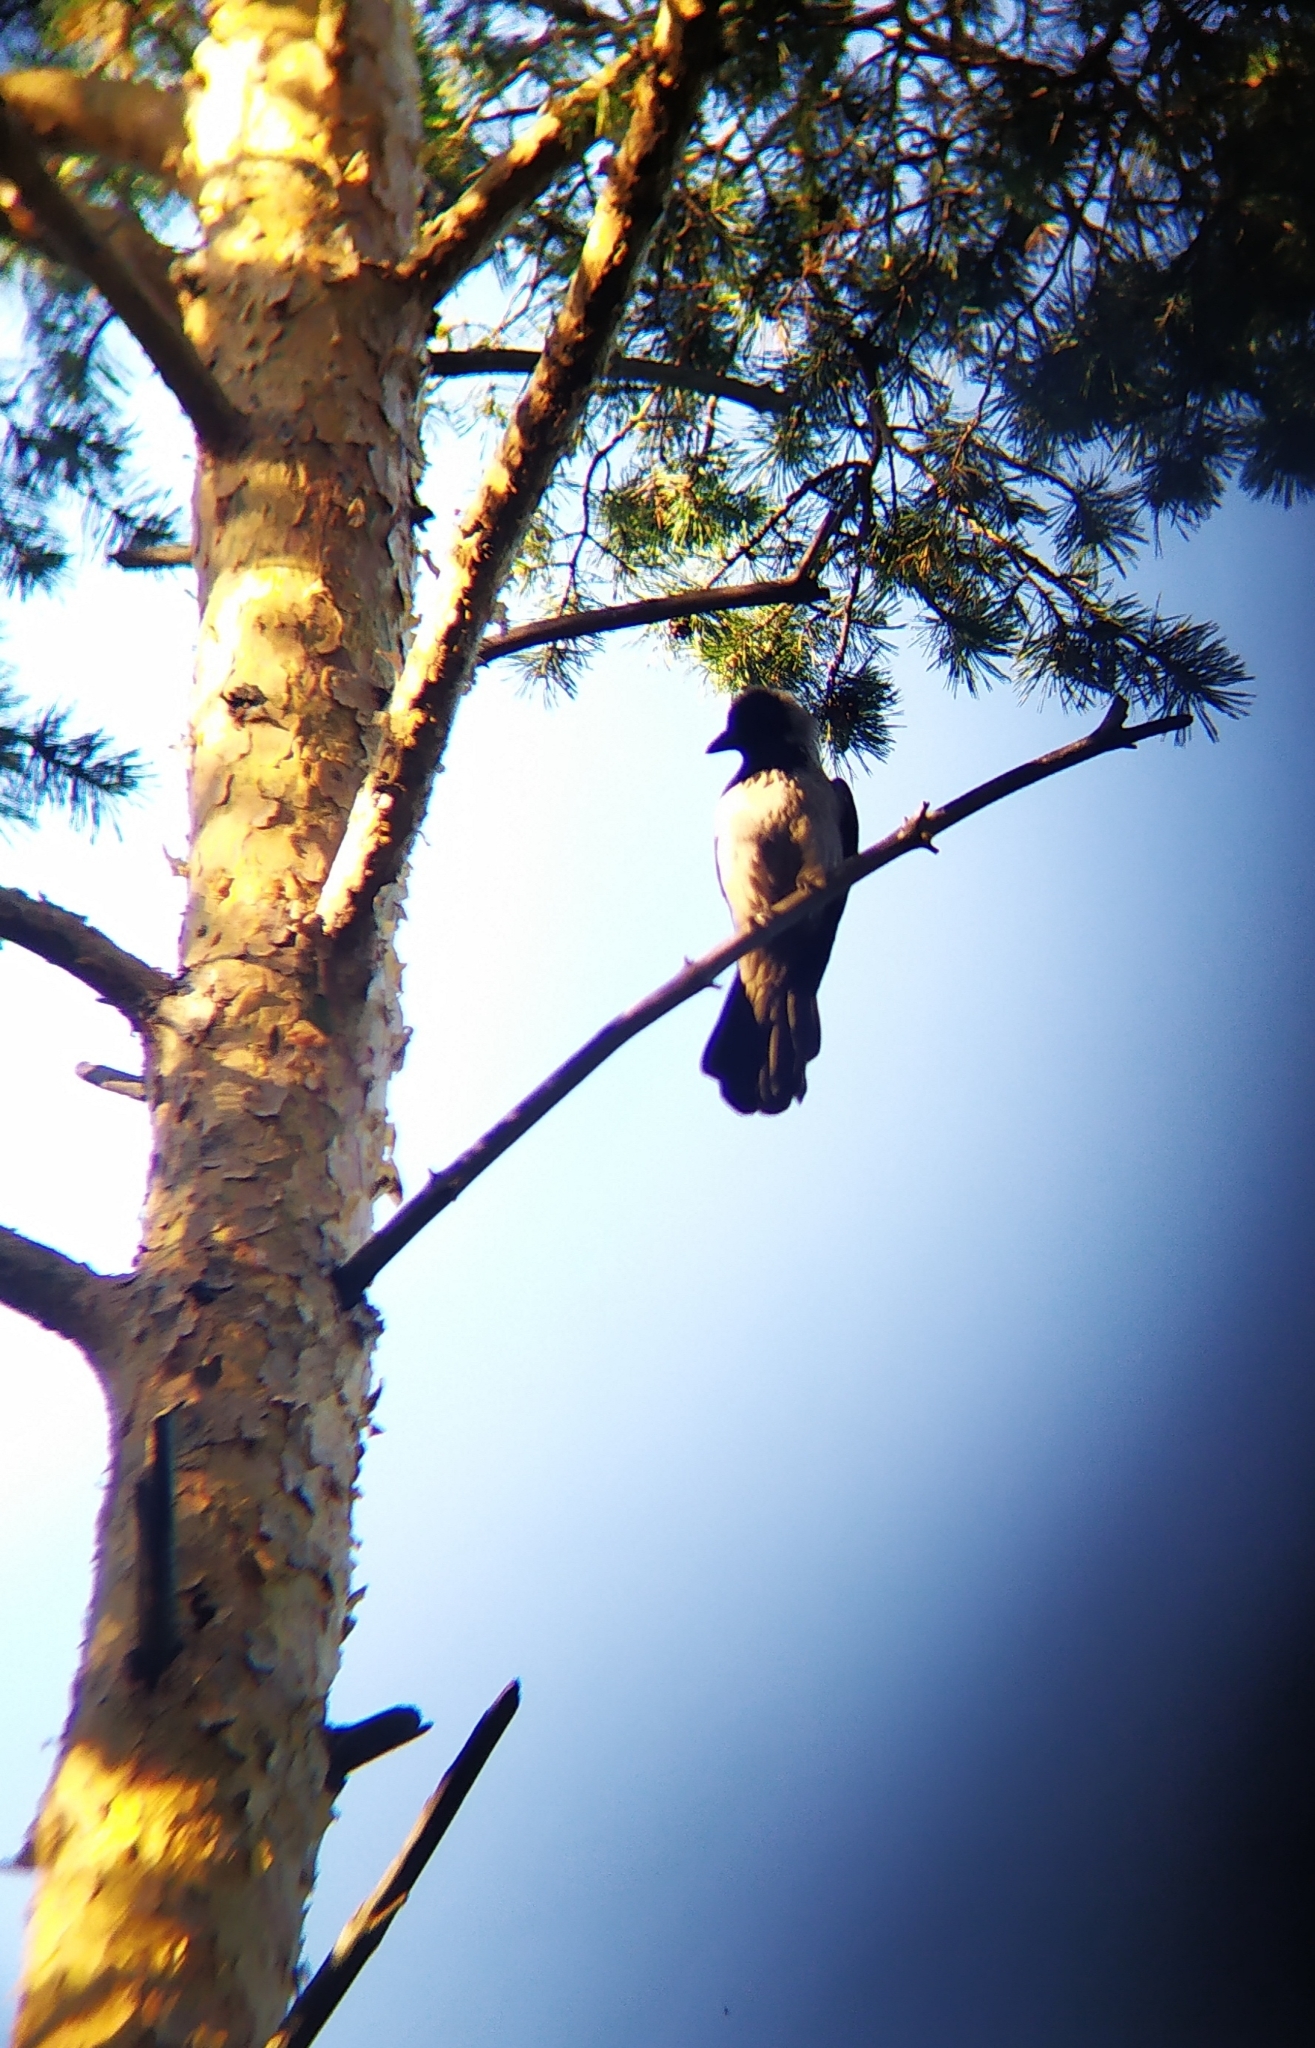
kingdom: Animalia
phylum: Chordata
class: Aves
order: Passeriformes
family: Corvidae
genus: Corvus
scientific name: Corvus cornix
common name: Hooded crow
